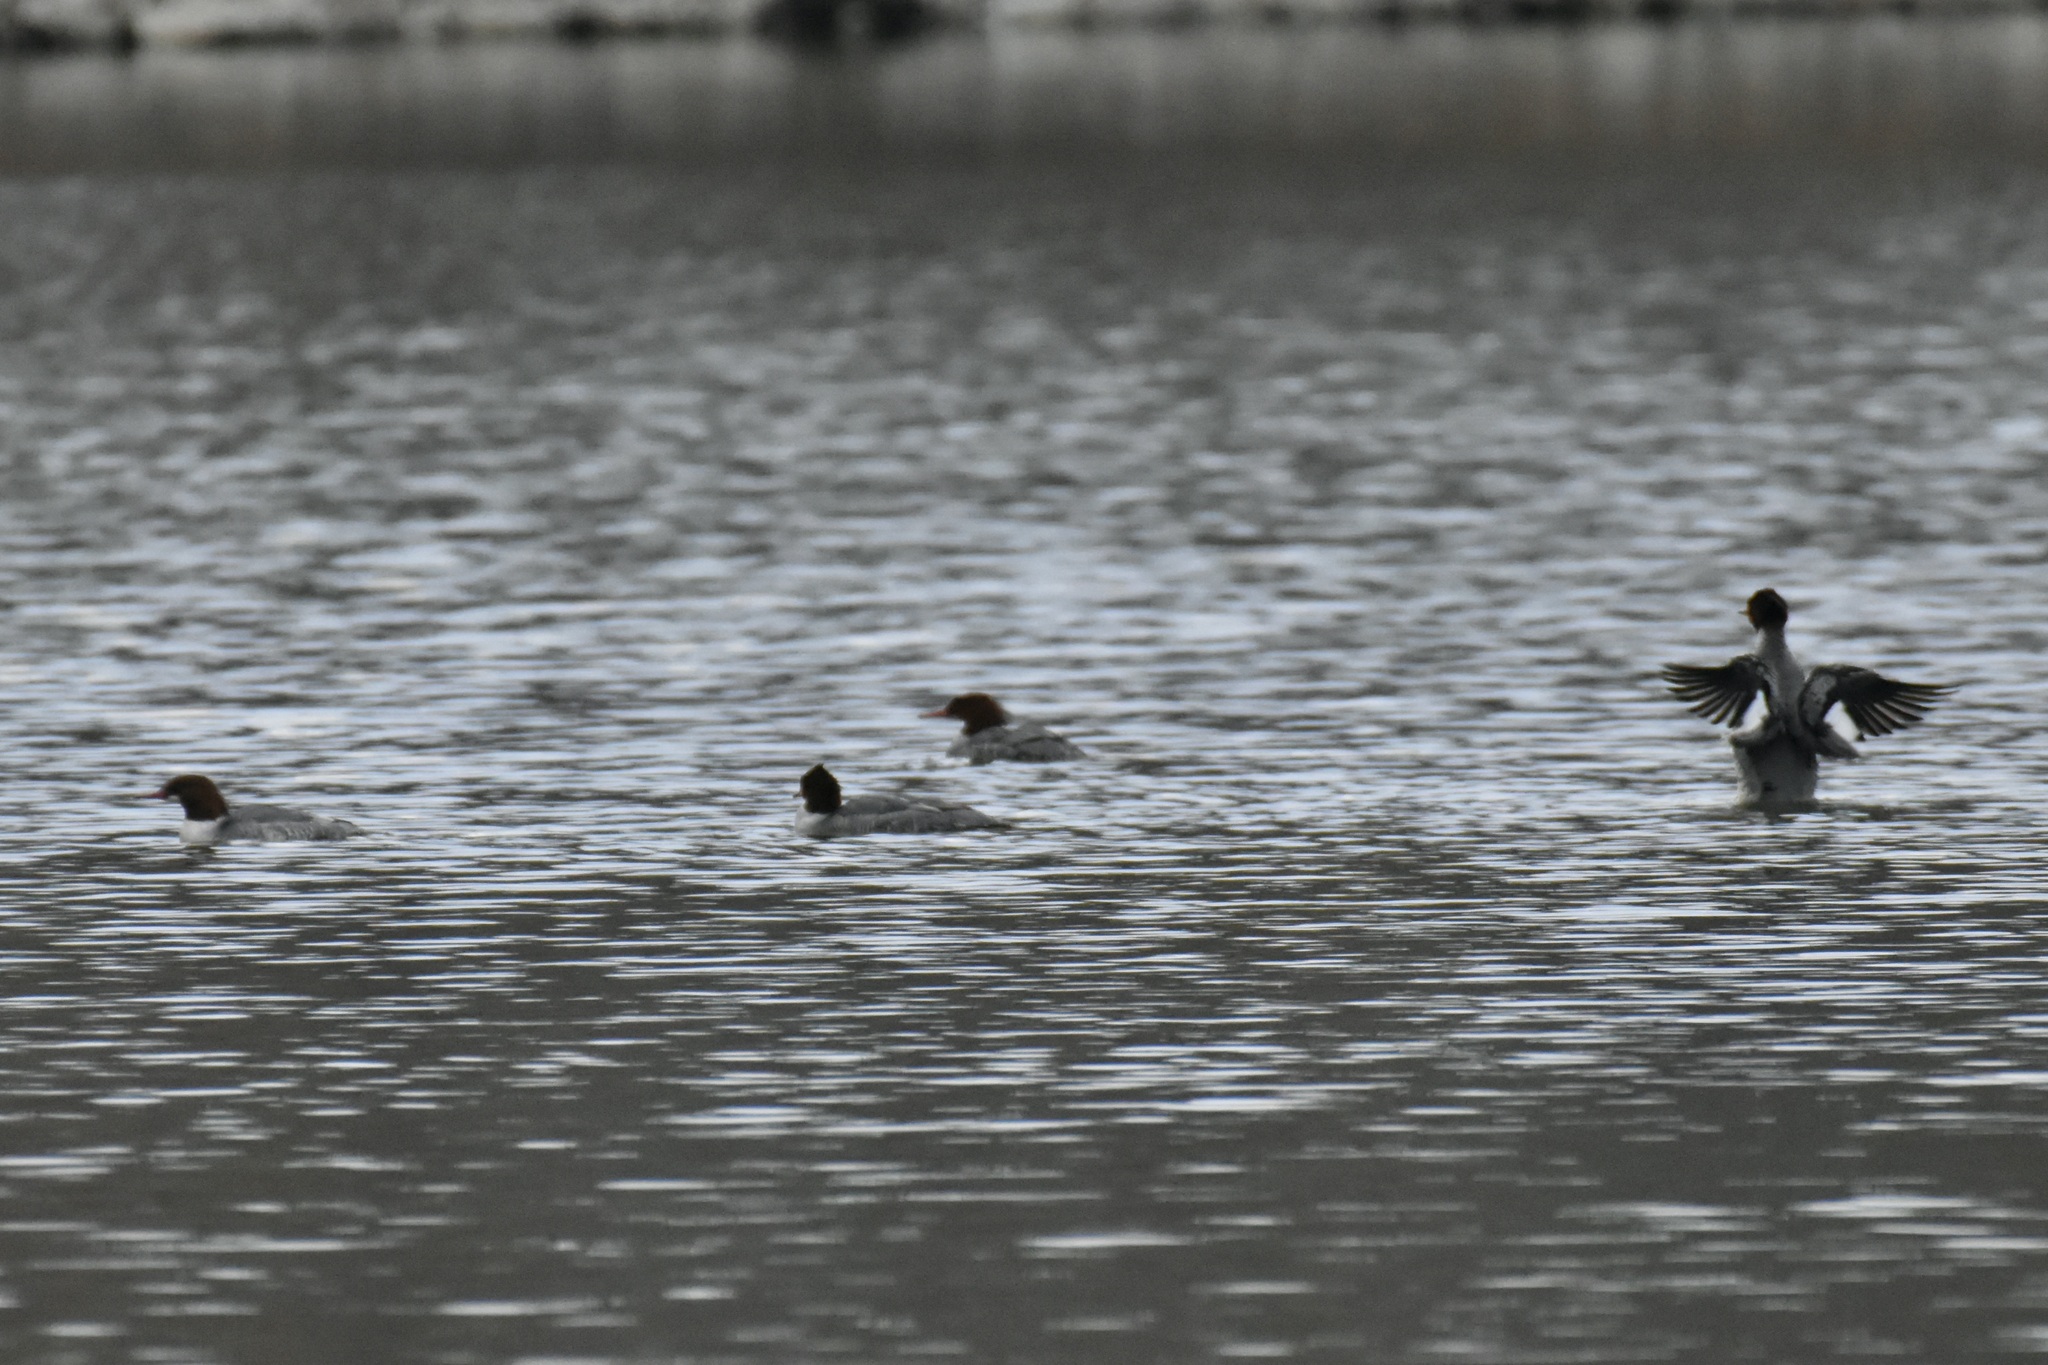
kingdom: Animalia
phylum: Chordata
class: Aves
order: Anseriformes
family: Anatidae
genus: Mergus
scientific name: Mergus merganser
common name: Common merganser
